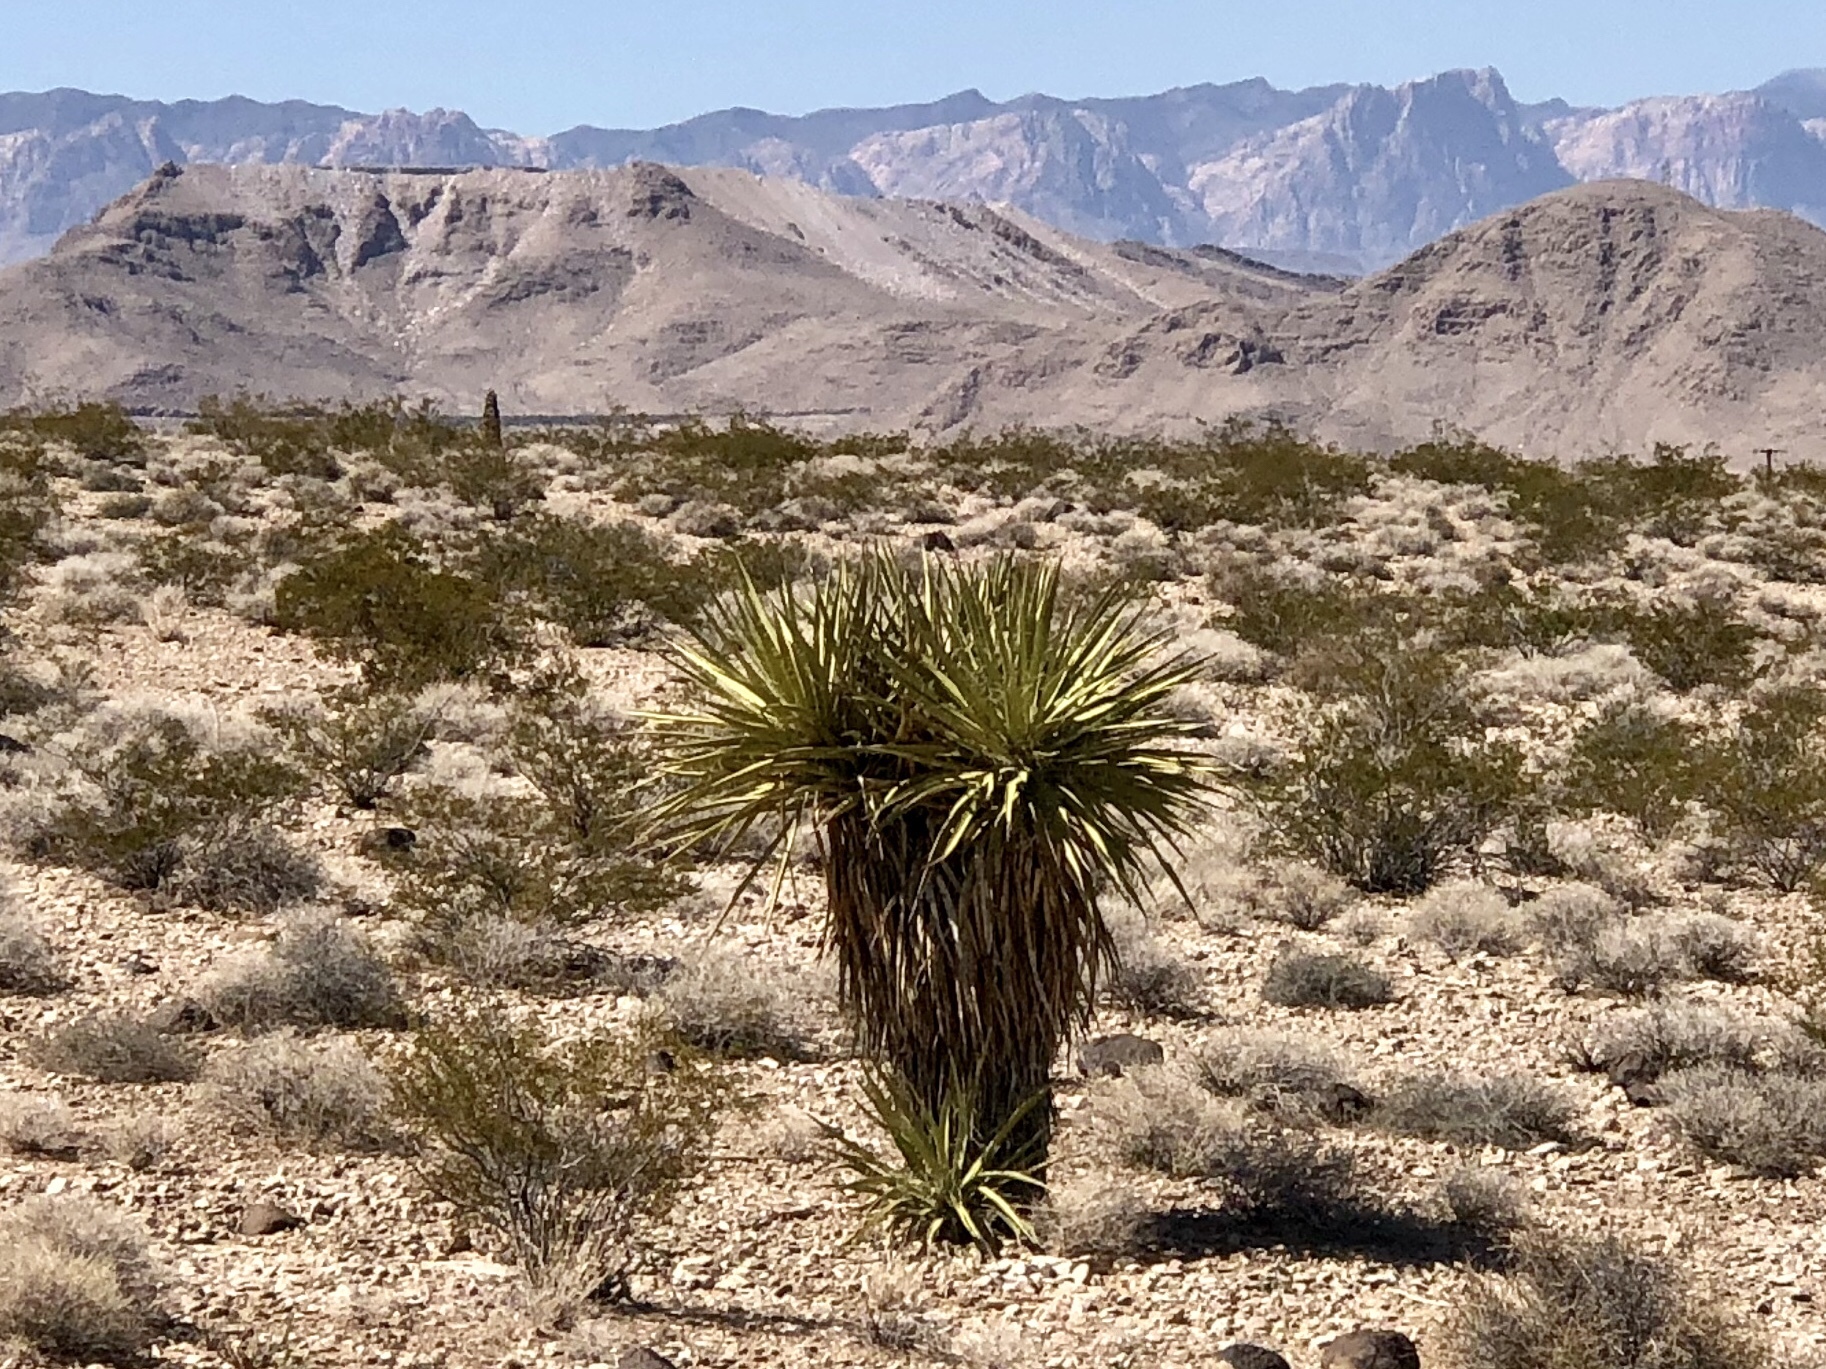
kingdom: Plantae
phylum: Tracheophyta
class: Liliopsida
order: Asparagales
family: Asparagaceae
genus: Yucca
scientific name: Yucca schidigera
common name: Mojave yucca
